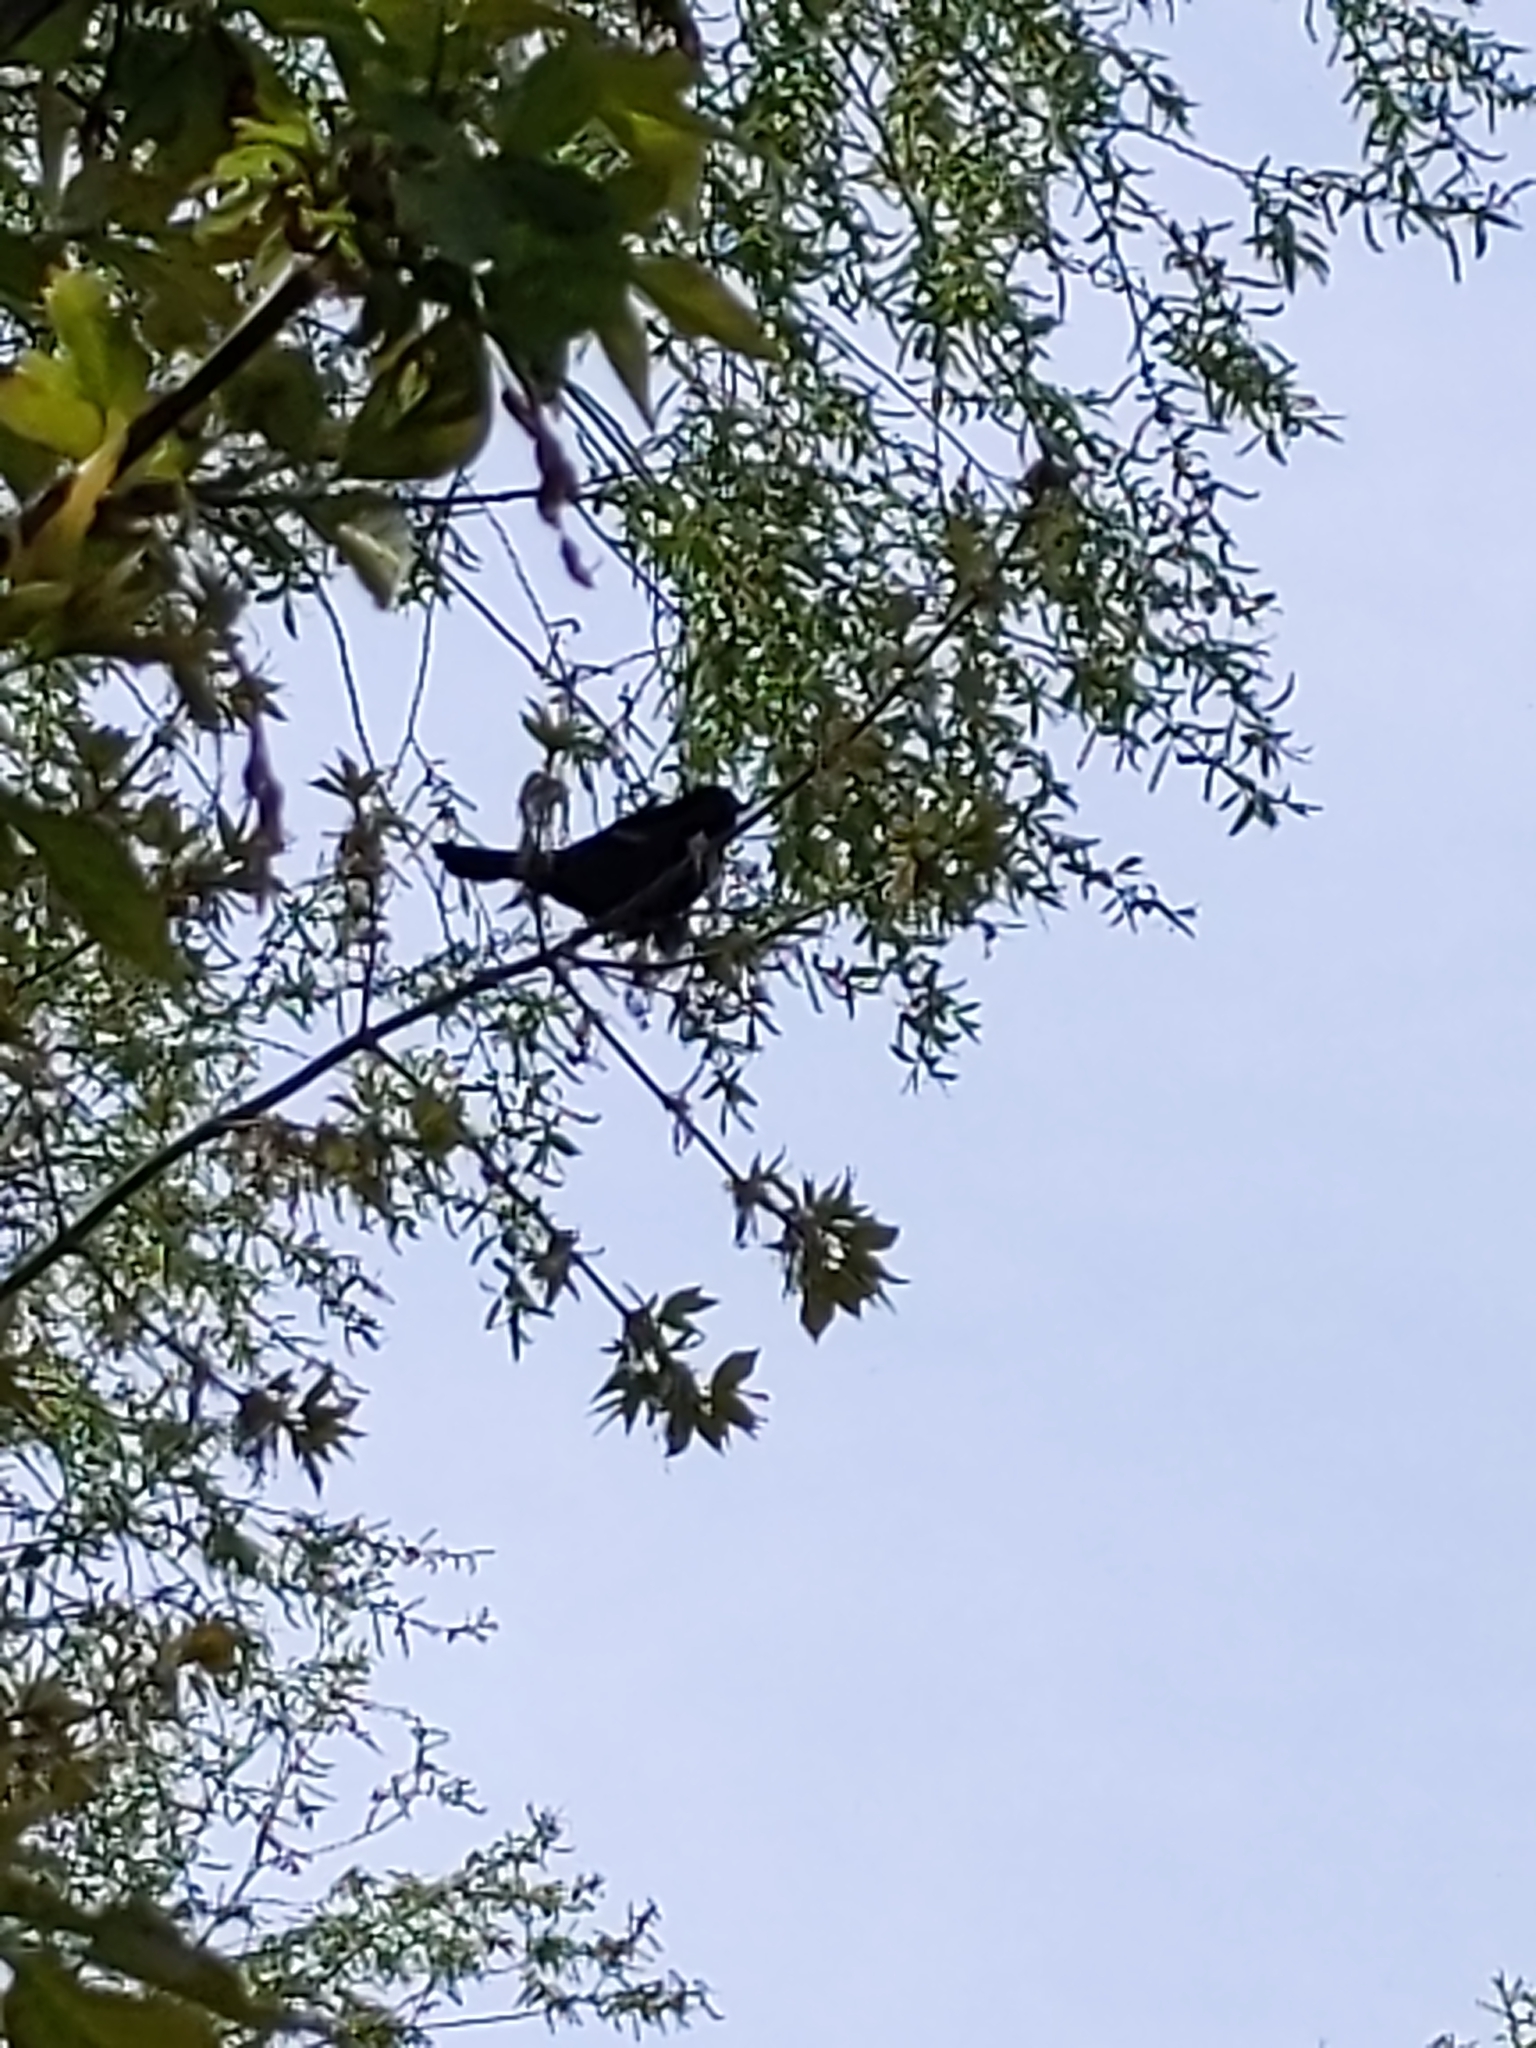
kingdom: Animalia
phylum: Chordata
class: Aves
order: Passeriformes
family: Icteridae
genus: Agelaius
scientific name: Agelaius phoeniceus
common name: Red-winged blackbird
